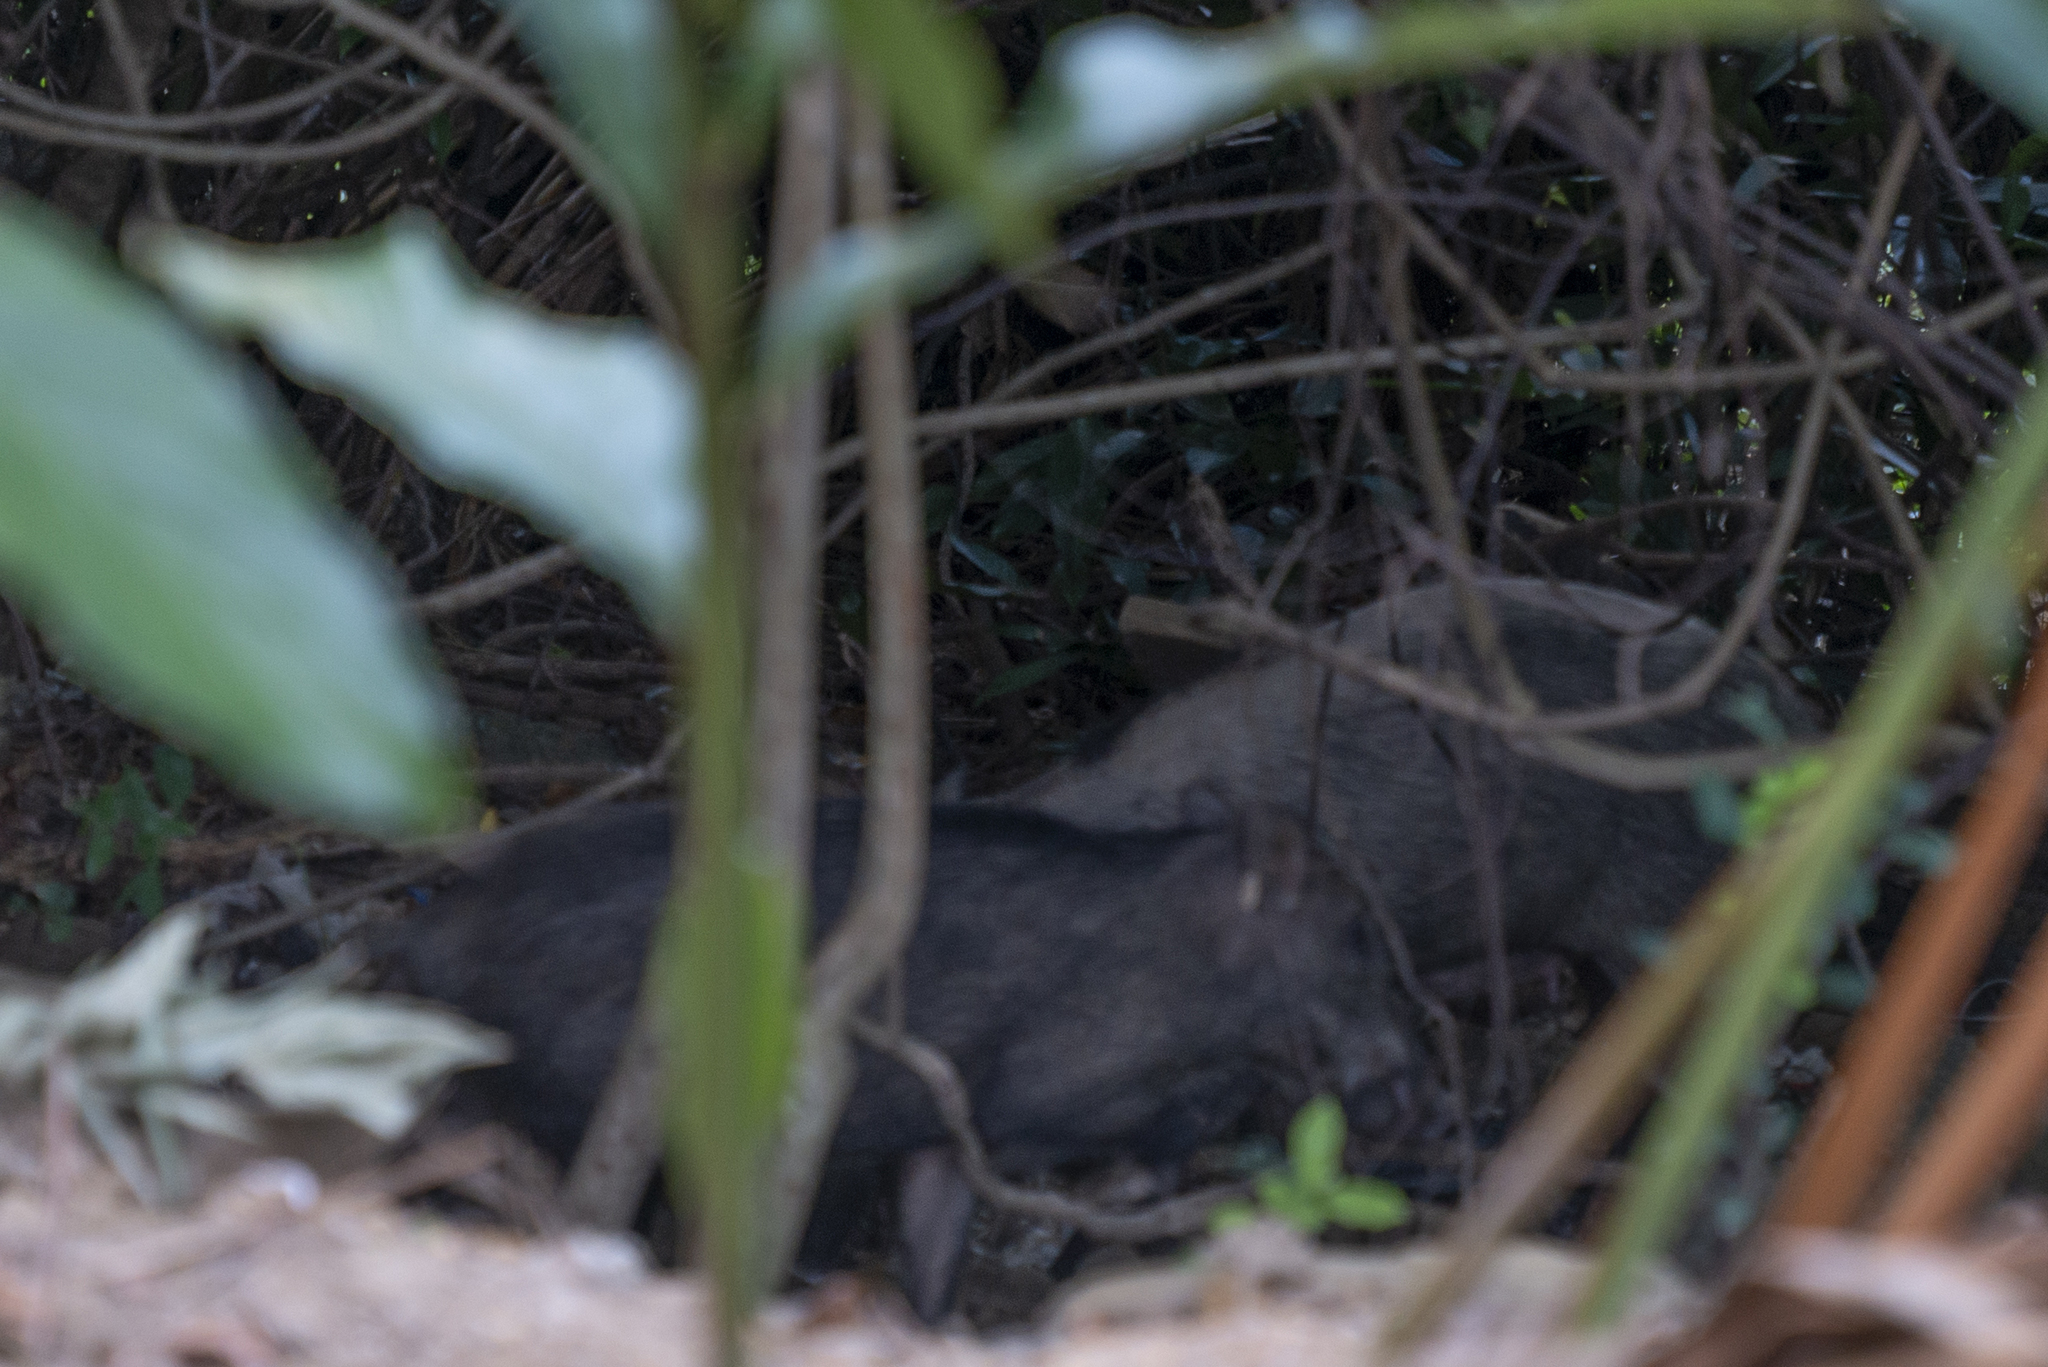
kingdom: Animalia
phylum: Chordata
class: Mammalia
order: Artiodactyla
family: Suidae
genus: Sus
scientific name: Sus scrofa
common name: Wild boar
